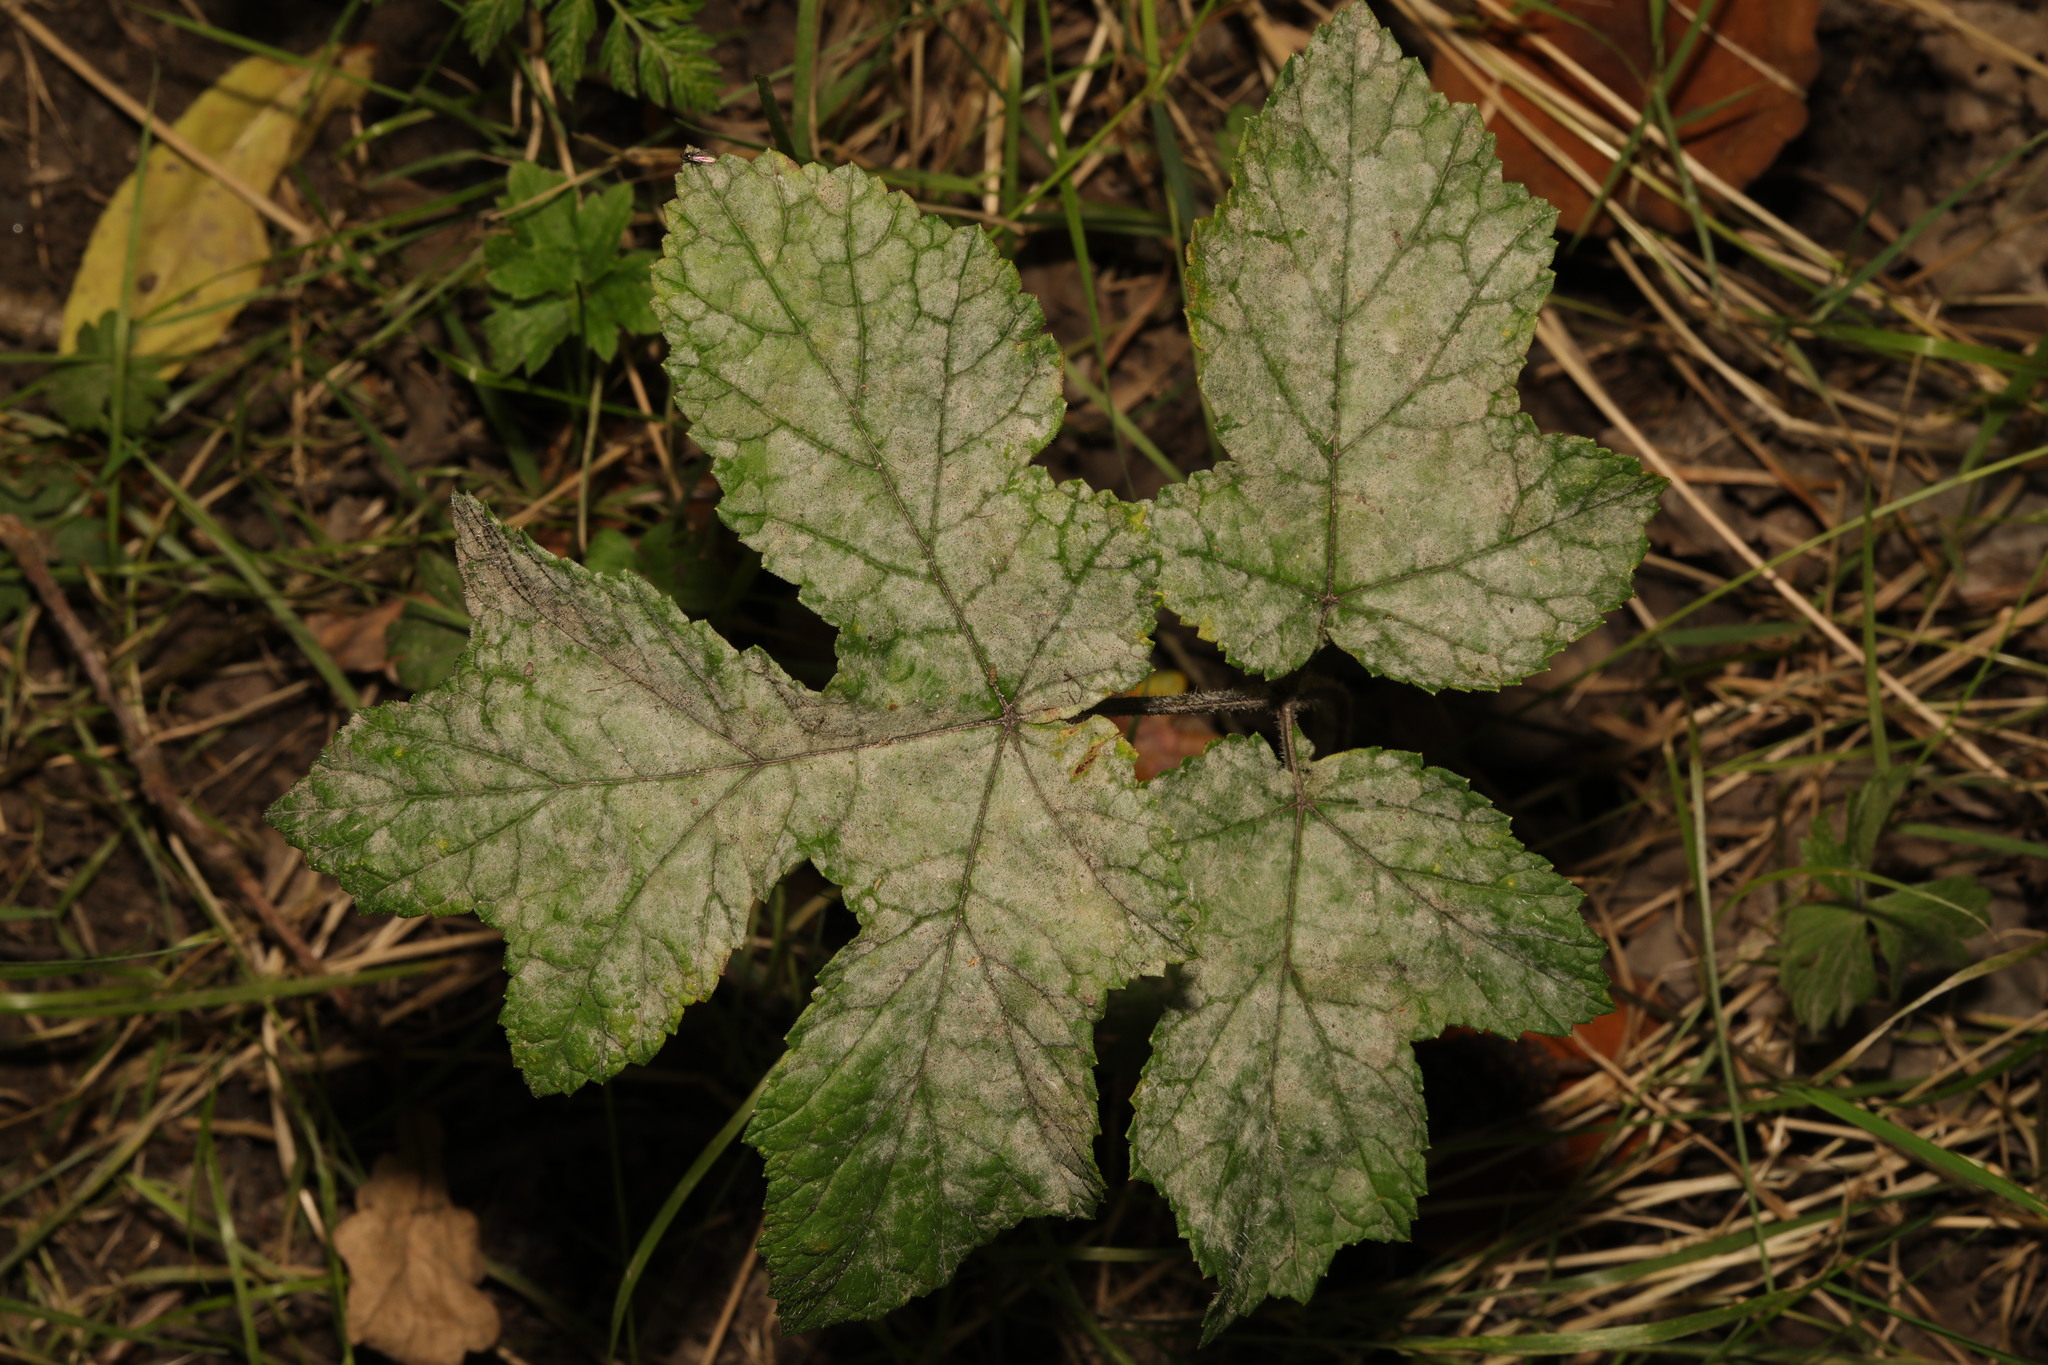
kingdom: Plantae
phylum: Tracheophyta
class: Magnoliopsida
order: Apiales
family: Apiaceae
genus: Heracleum
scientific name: Heracleum sphondylium
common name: Hogweed
